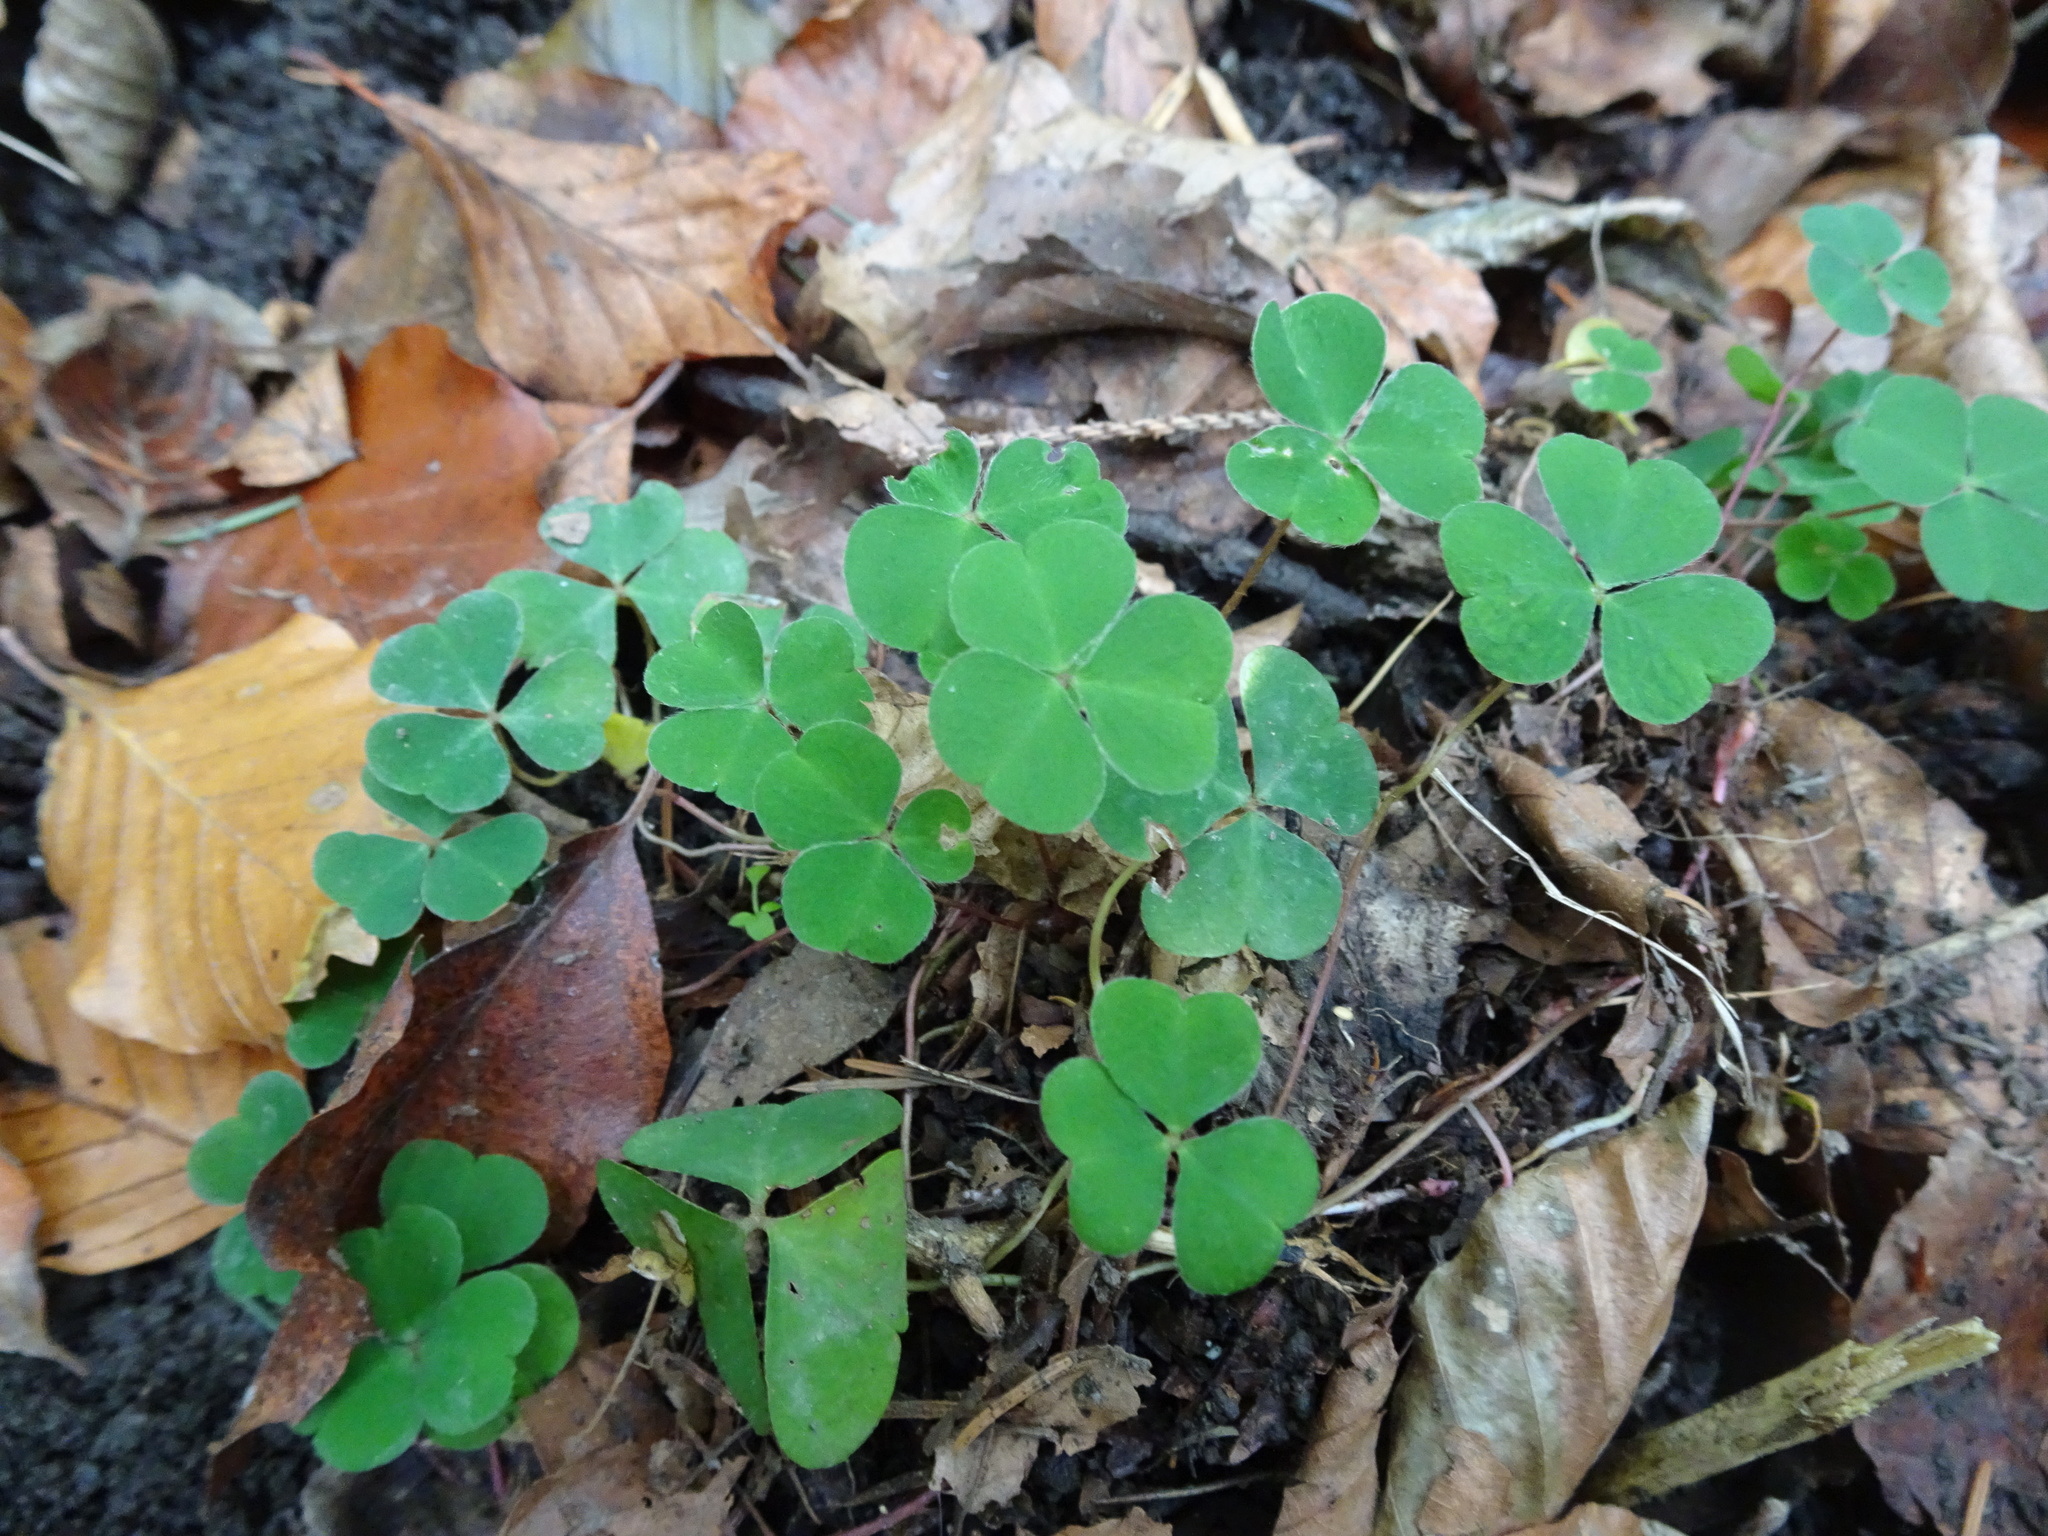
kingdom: Plantae
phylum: Tracheophyta
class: Magnoliopsida
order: Oxalidales
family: Oxalidaceae
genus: Oxalis
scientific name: Oxalis acetosella
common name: Wood-sorrel
